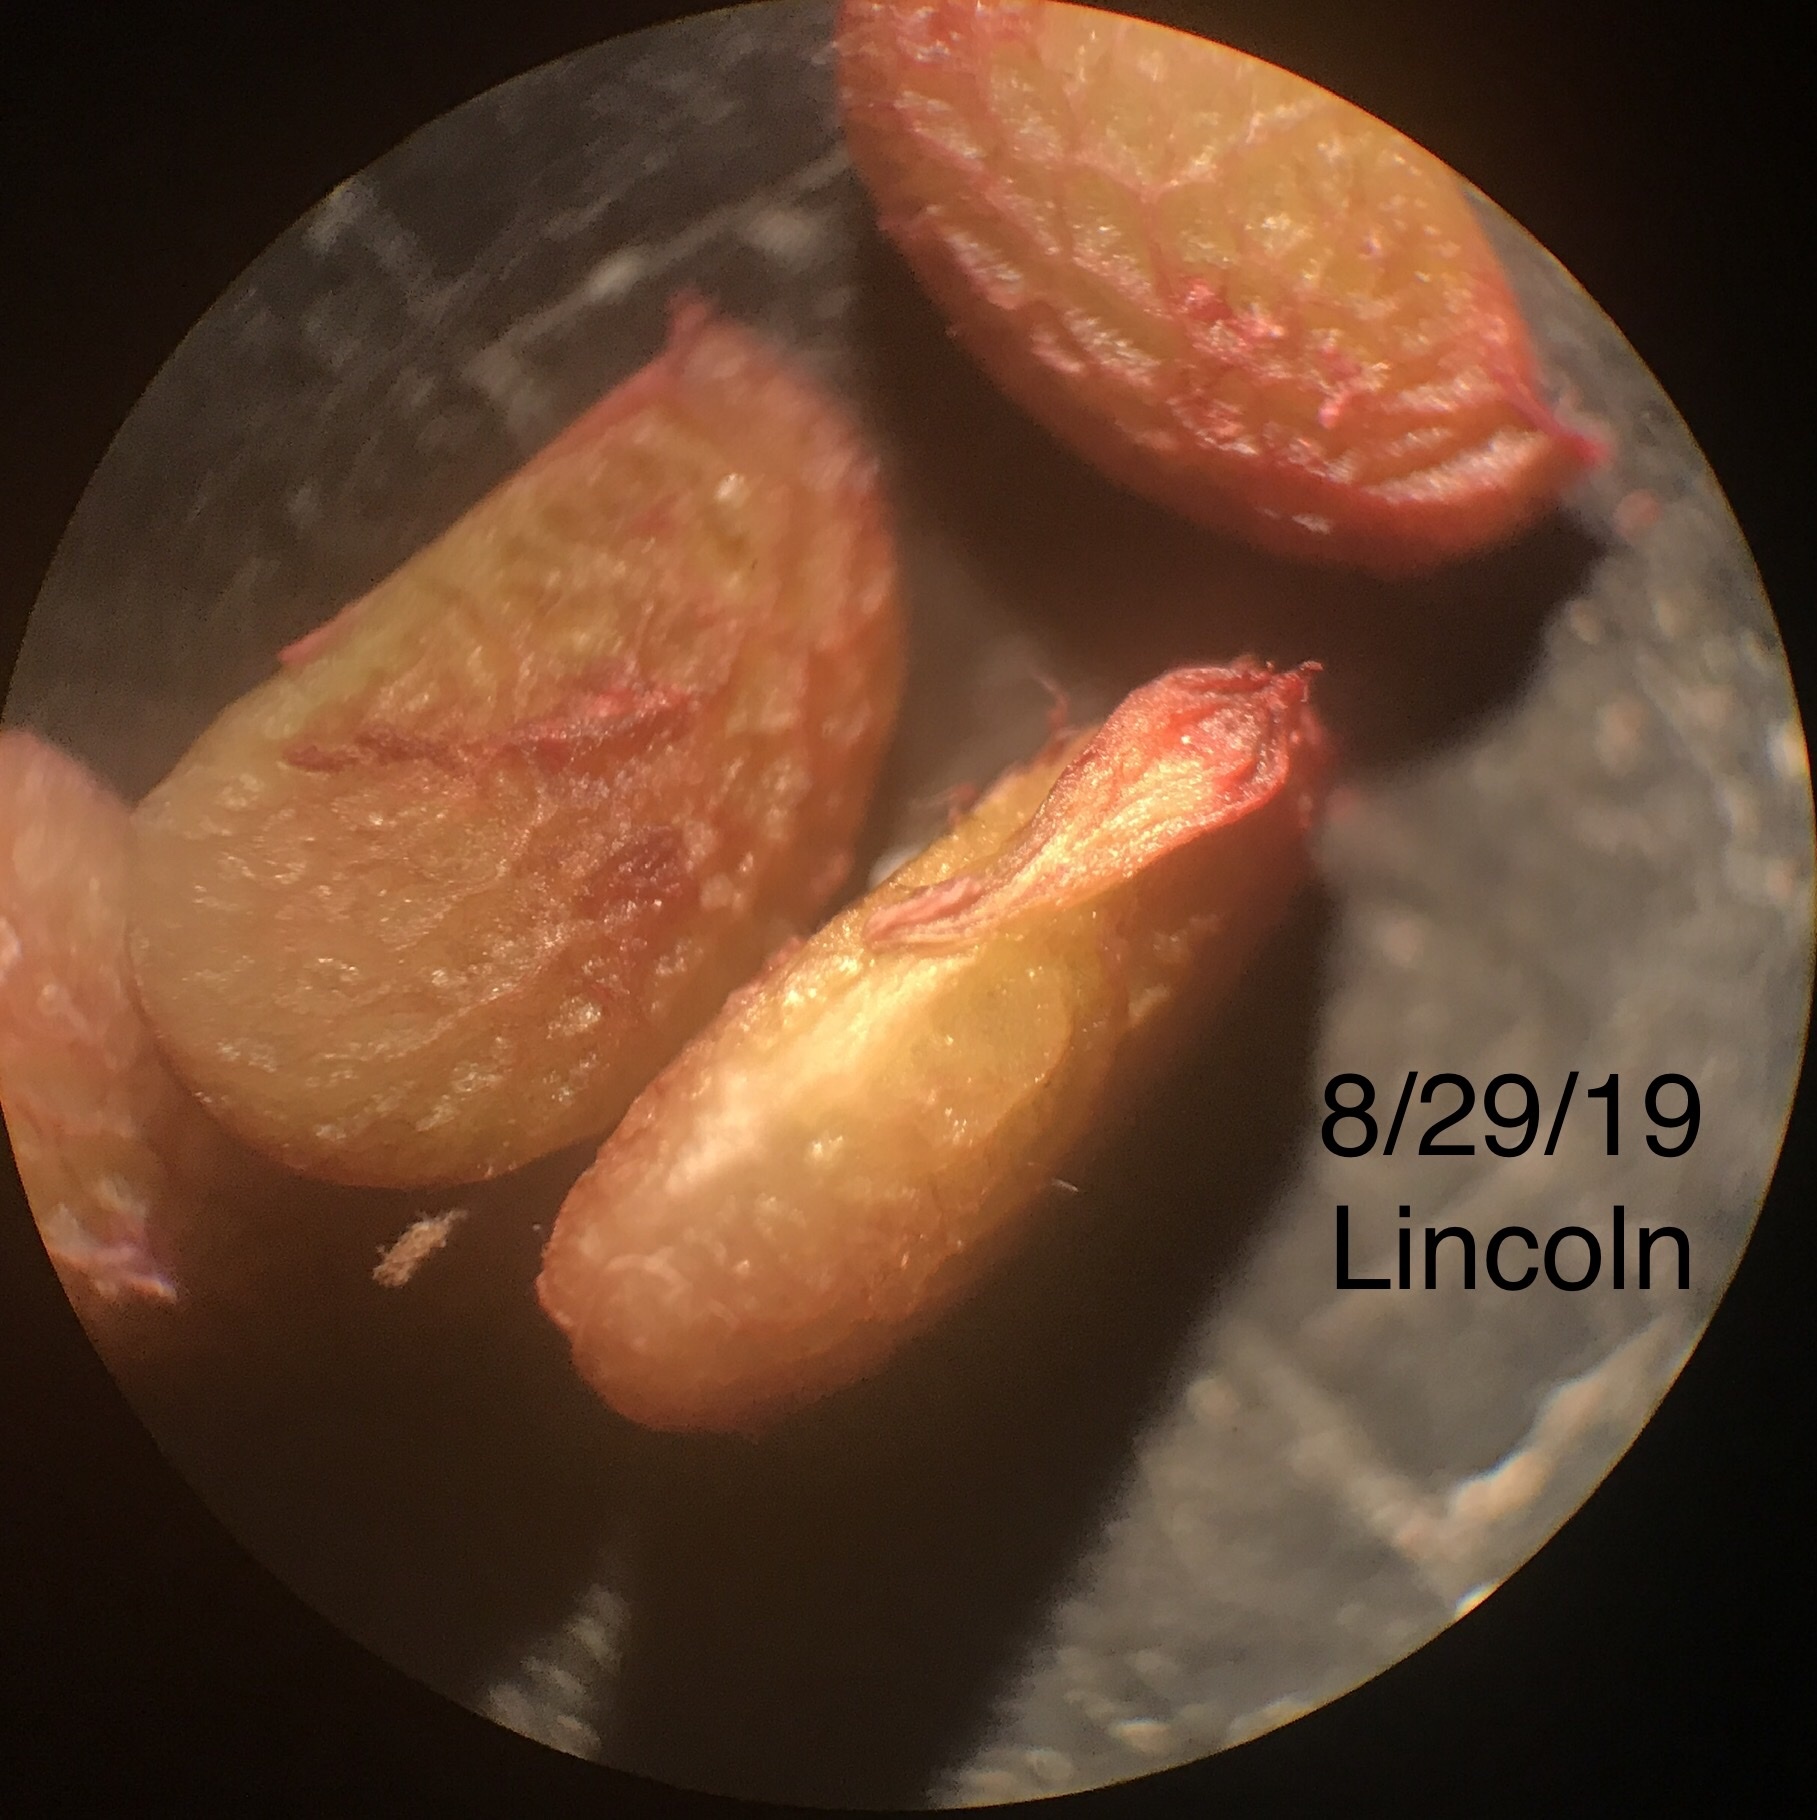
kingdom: Plantae
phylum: Tracheophyta
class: Magnoliopsida
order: Rosales
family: Rosaceae
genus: Rubus
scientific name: Rubus caesius
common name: Dewberry
